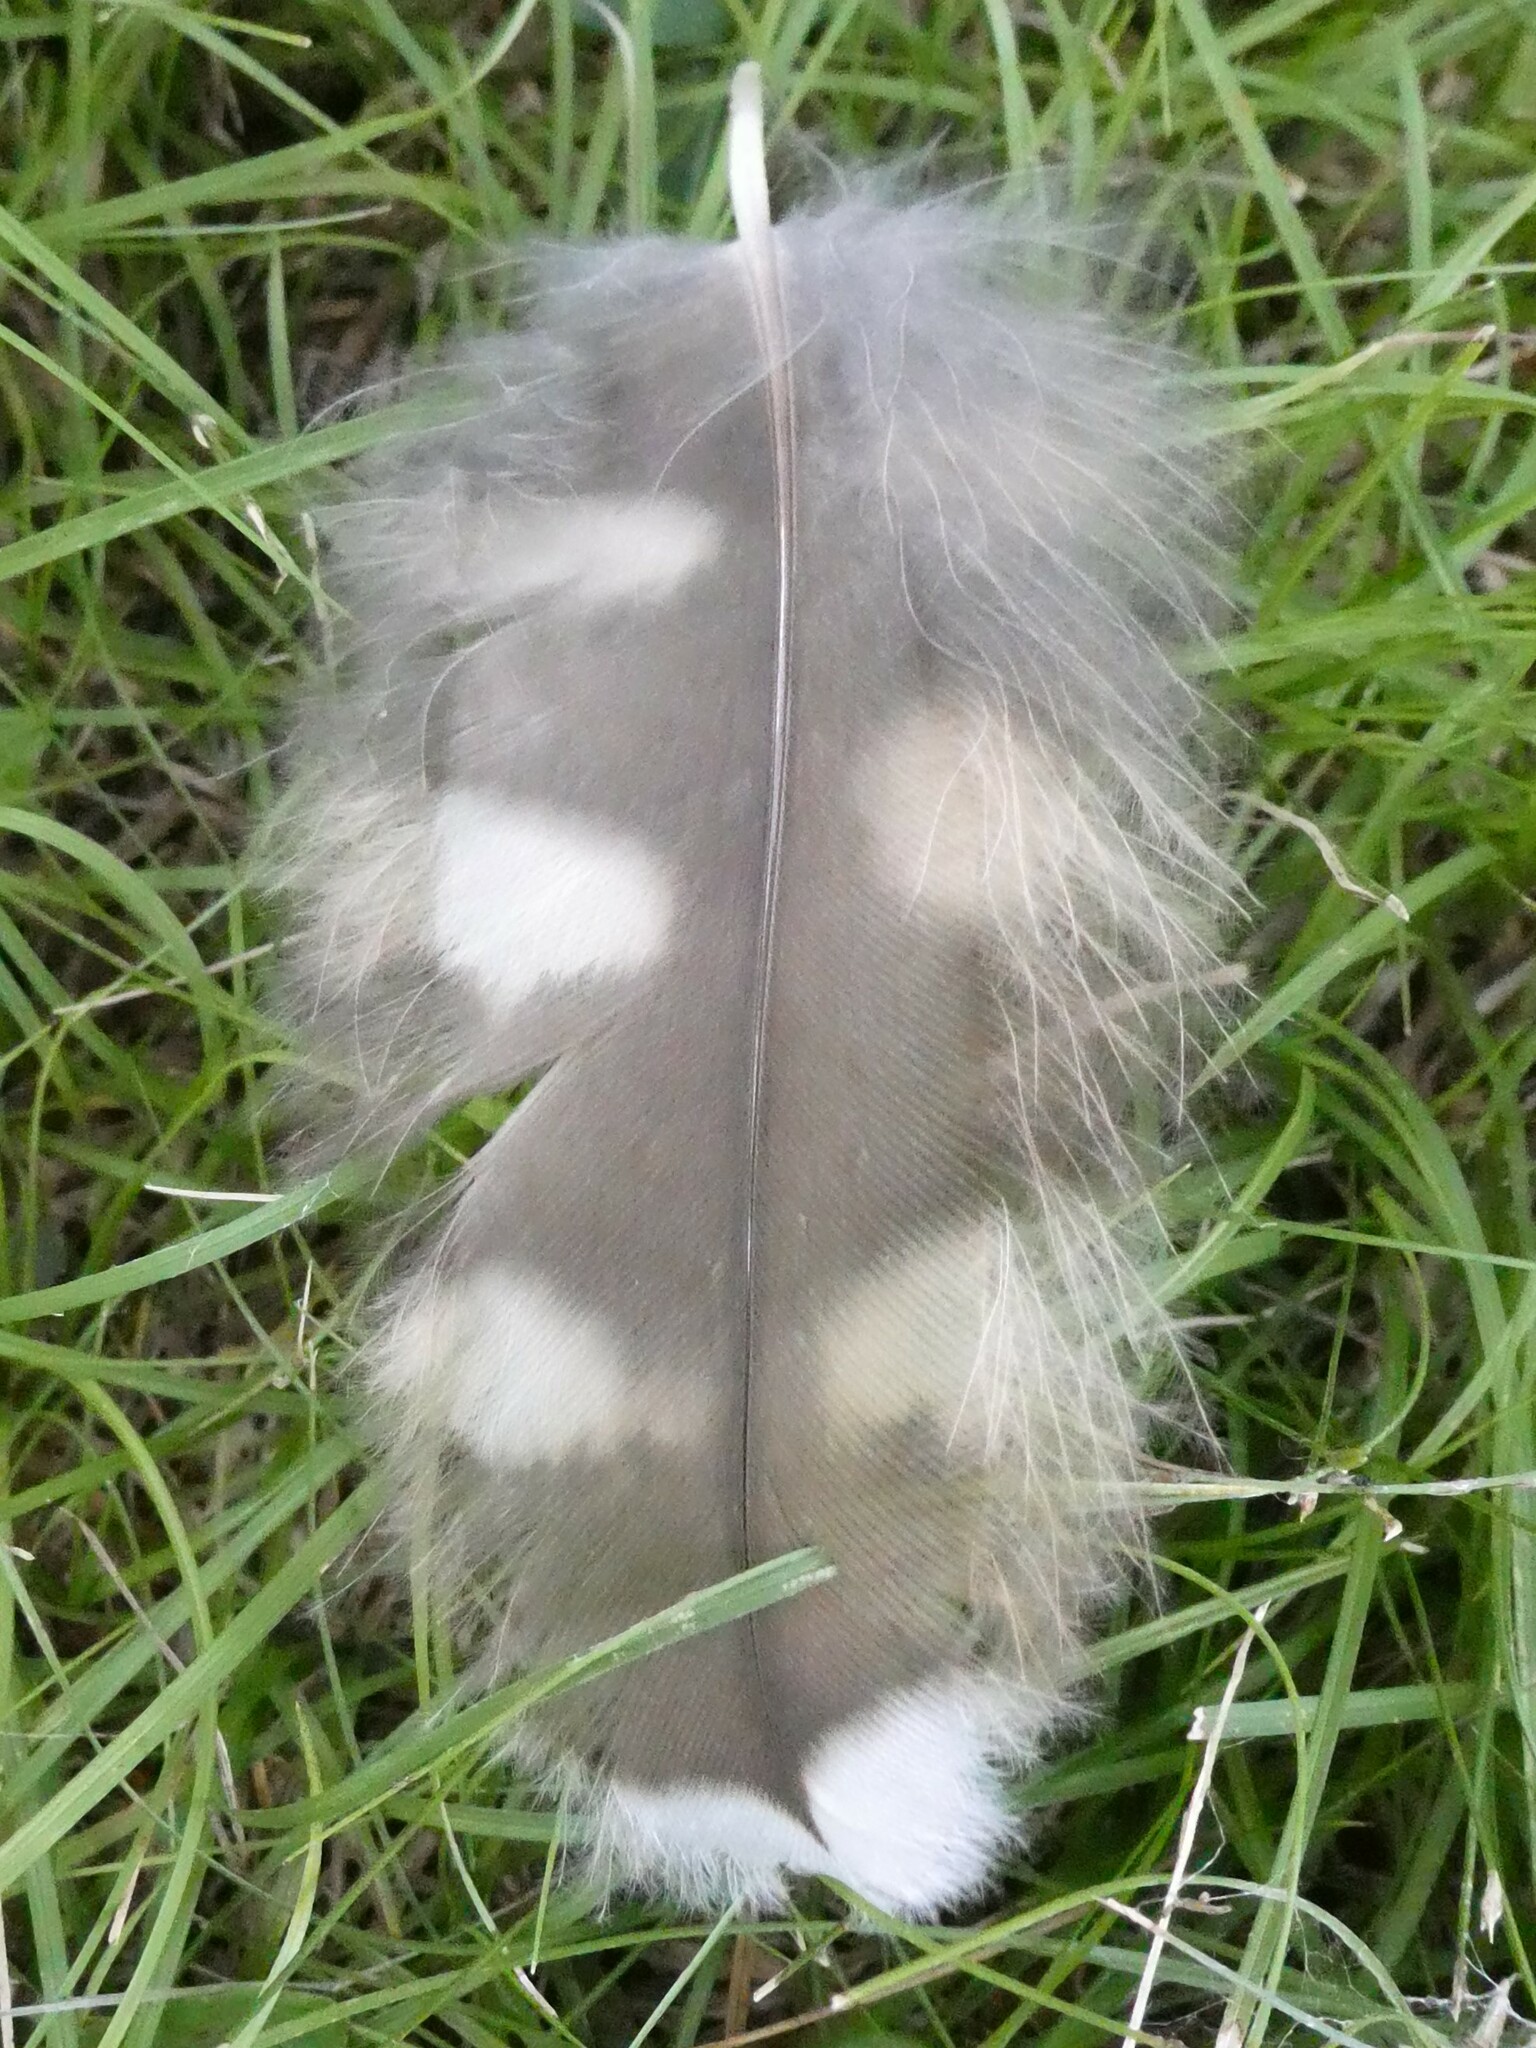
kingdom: Animalia
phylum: Chordata
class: Aves
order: Strigiformes
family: Strigidae
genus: Strix
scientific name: Strix varia
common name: Barred owl
